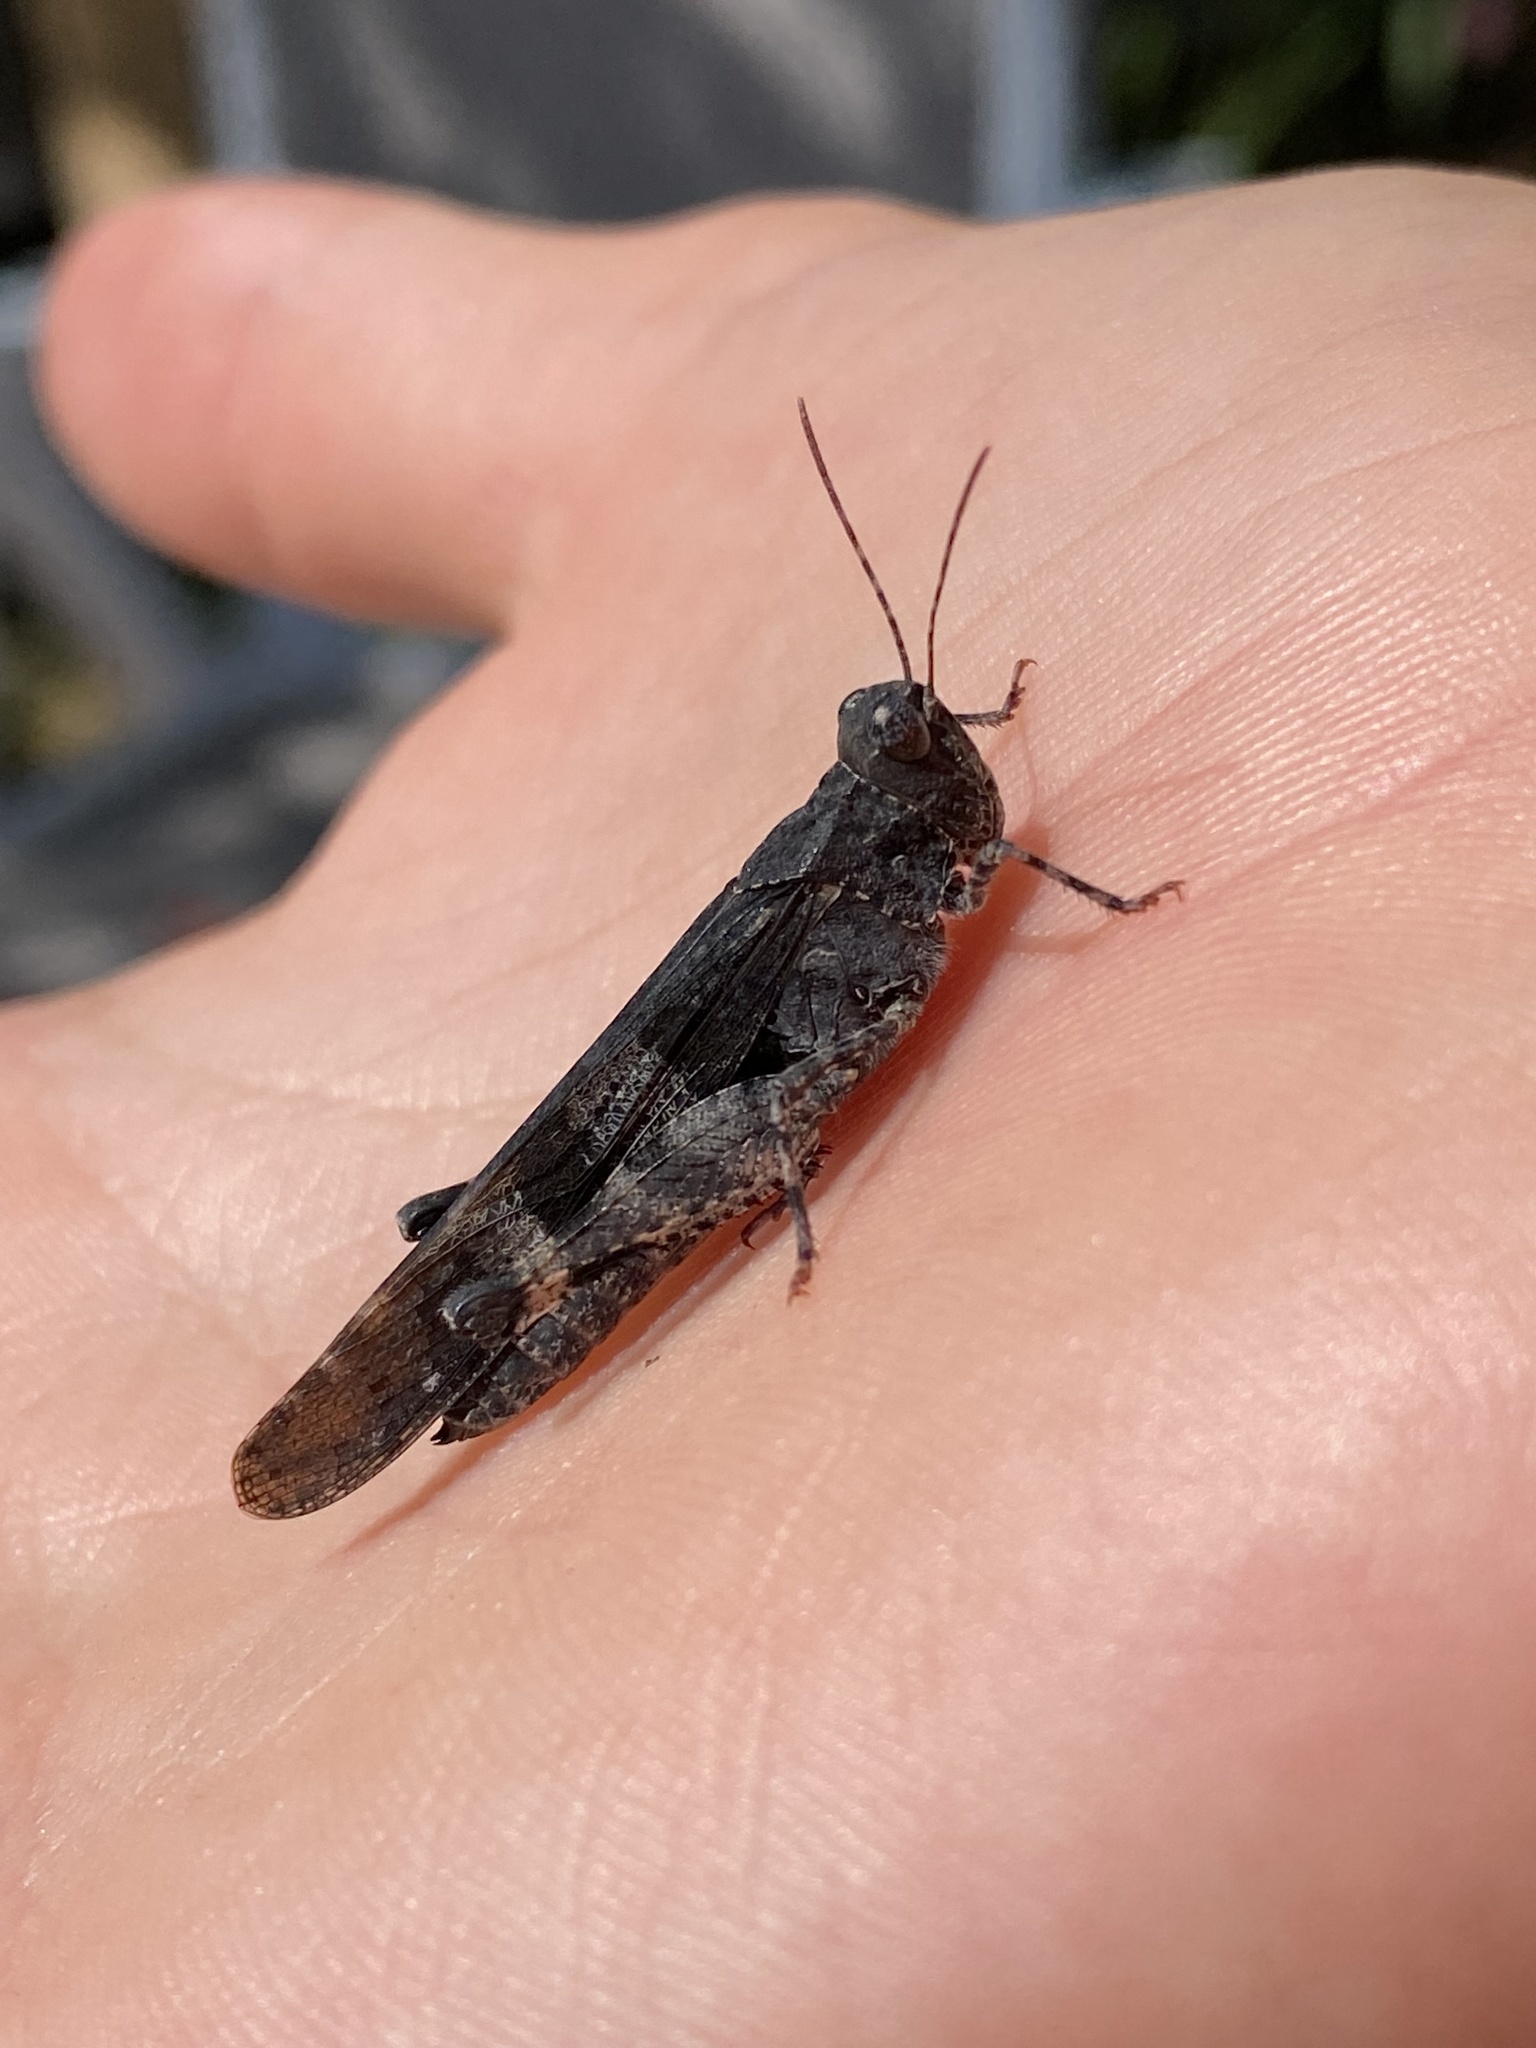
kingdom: Animalia
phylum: Arthropoda
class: Insecta
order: Orthoptera
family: Acrididae
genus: Trimerotropis
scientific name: Trimerotropis fontana
